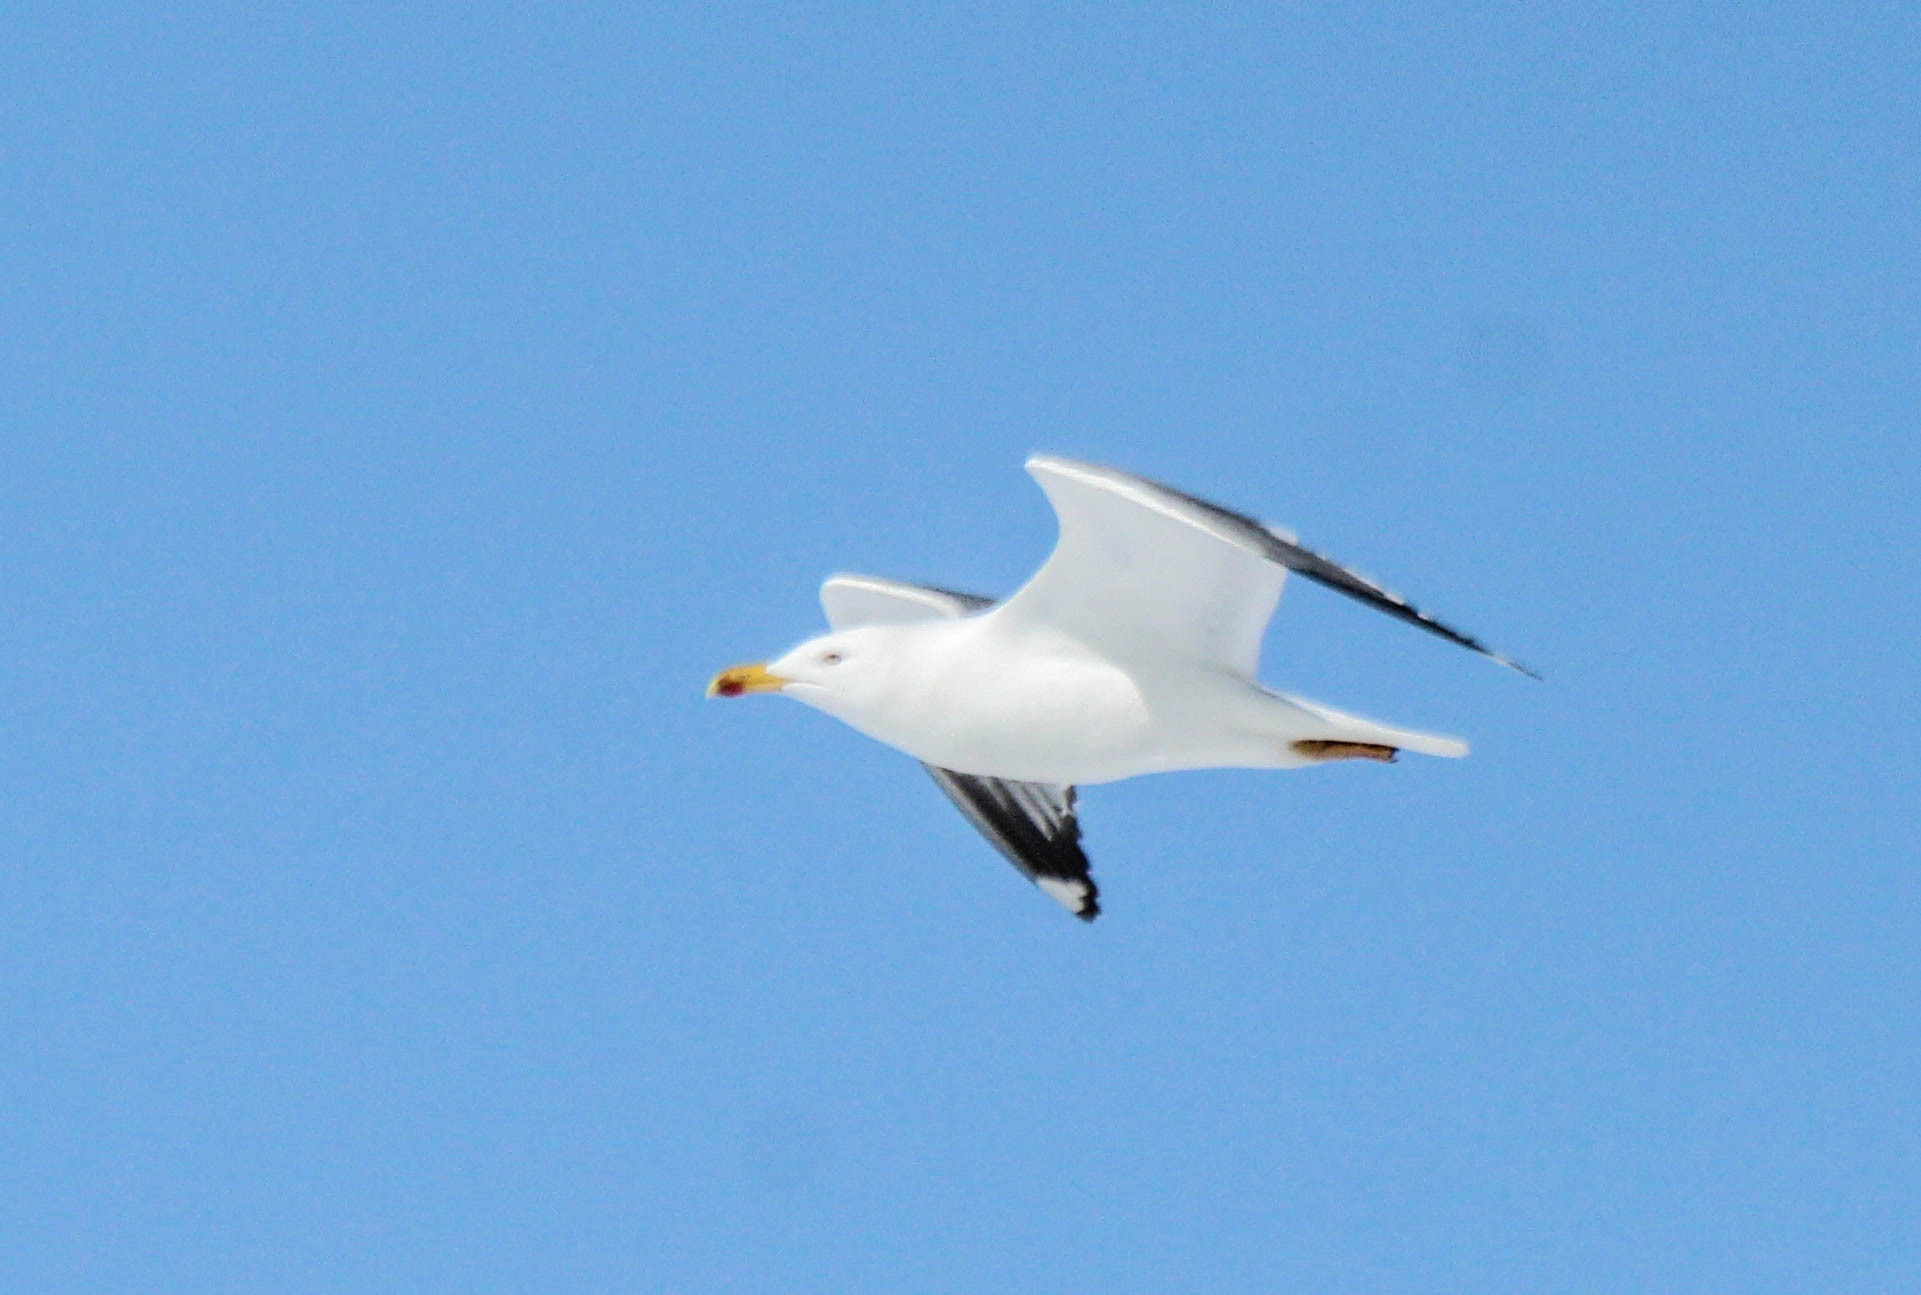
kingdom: Animalia
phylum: Chordata
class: Aves
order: Charadriiformes
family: Laridae
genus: Larus
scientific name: Larus fuscus
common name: Lesser black-backed gull
